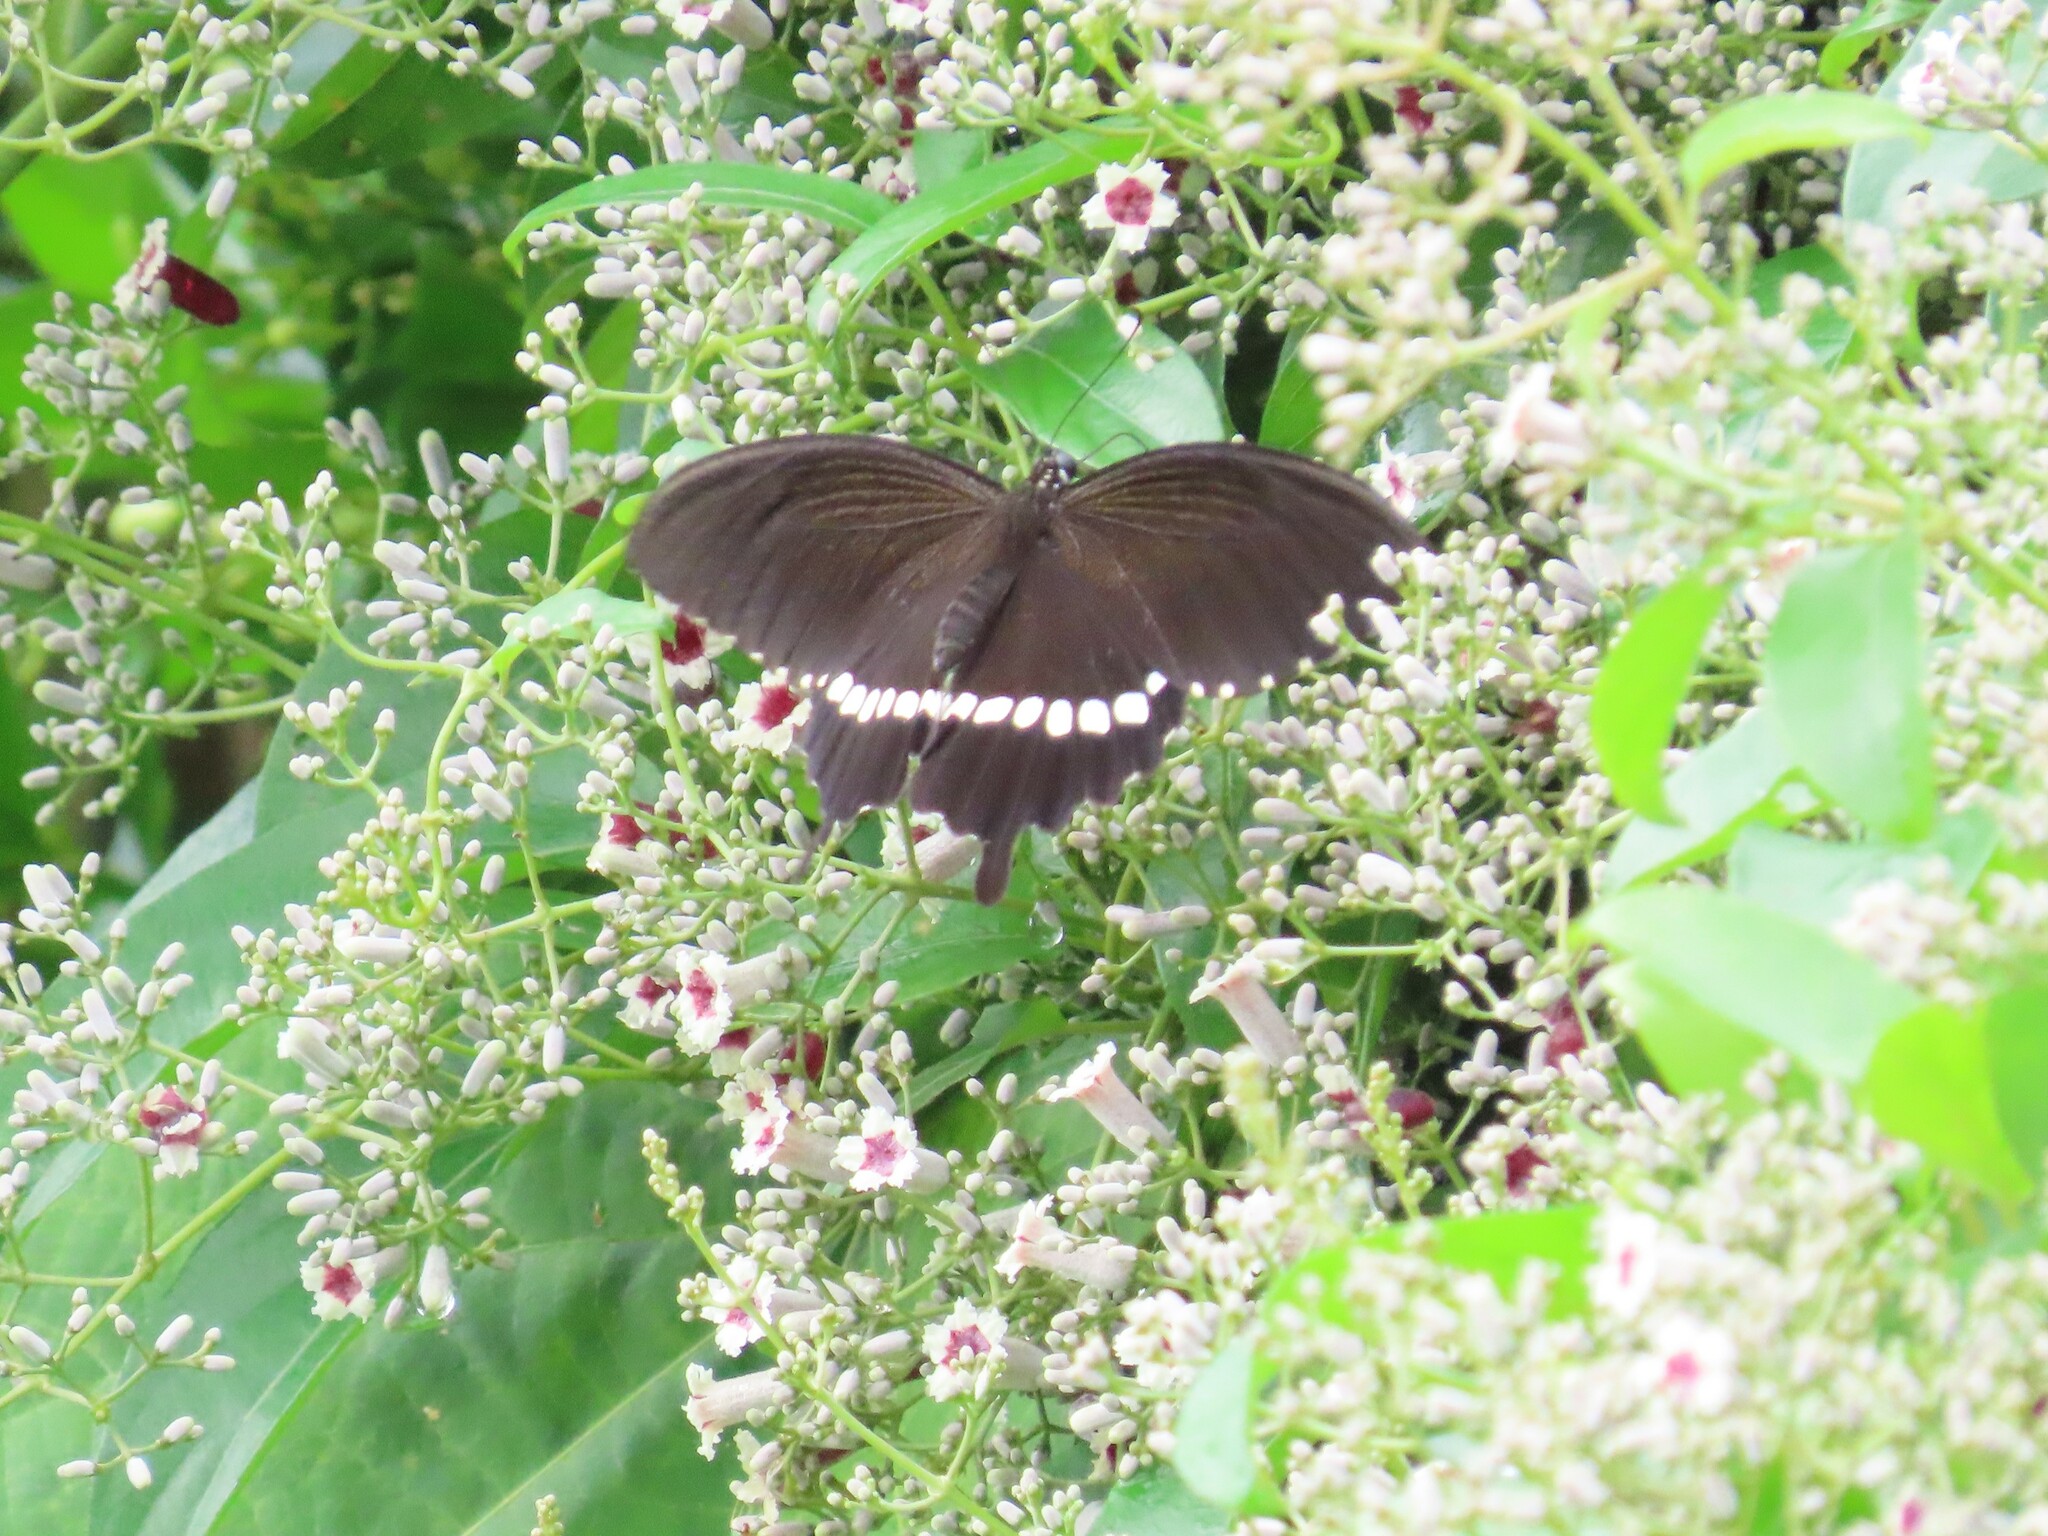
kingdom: Animalia
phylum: Arthropoda
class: Insecta
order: Lepidoptera
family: Papilionidae
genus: Papilio
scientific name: Papilio polytes
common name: Common mormon
